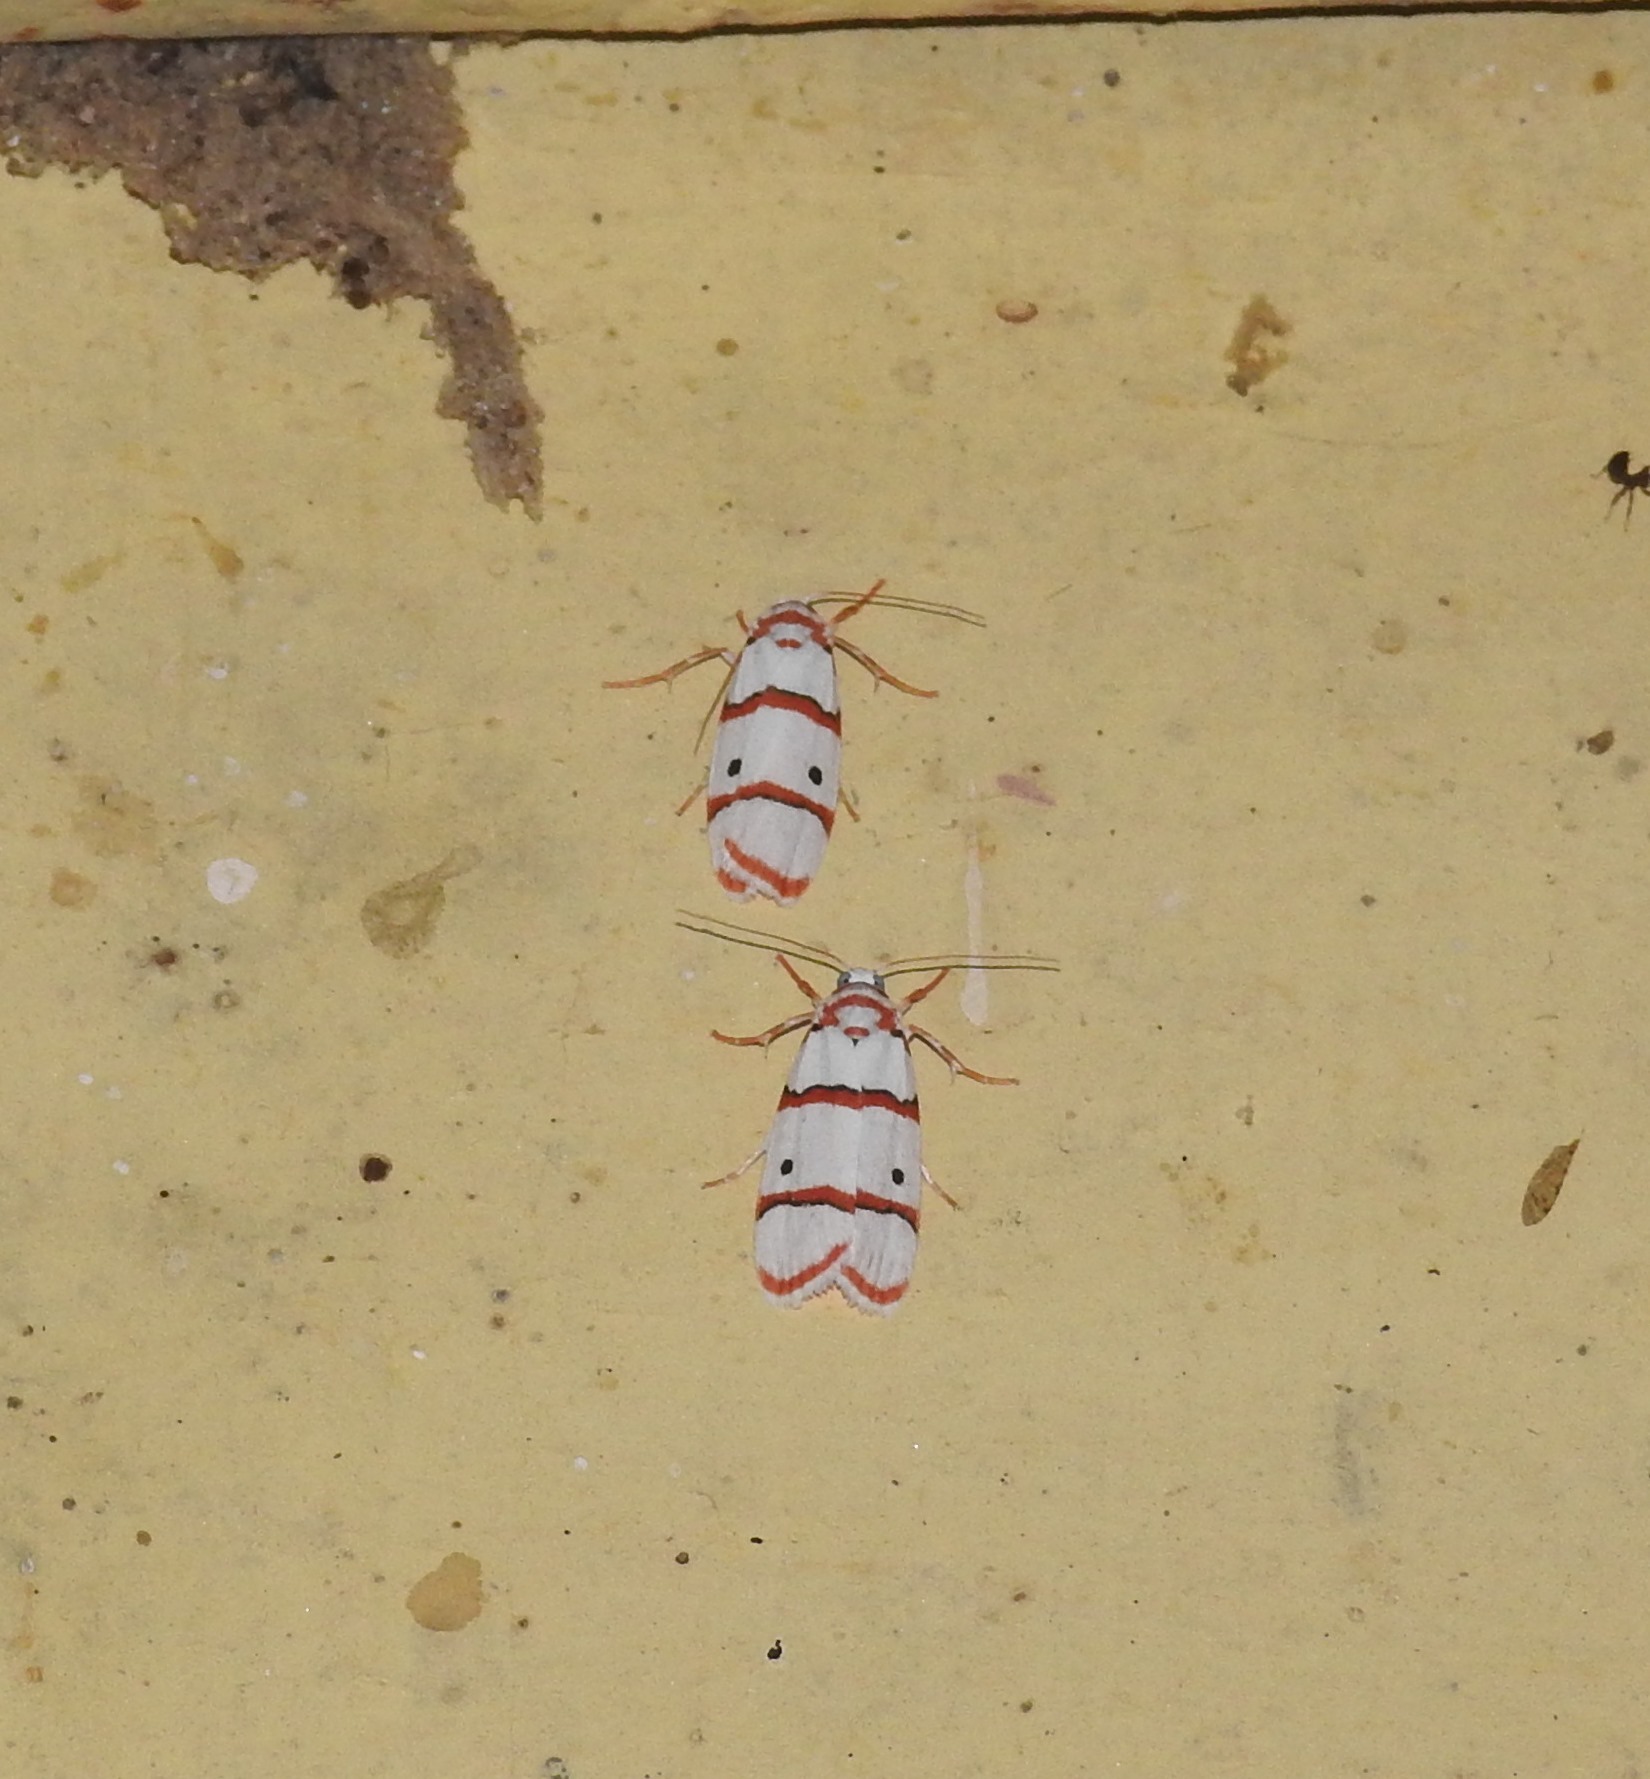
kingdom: Animalia
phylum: Arthropoda
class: Insecta
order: Lepidoptera
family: Erebidae
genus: Cyana
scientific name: Cyana peregrina
